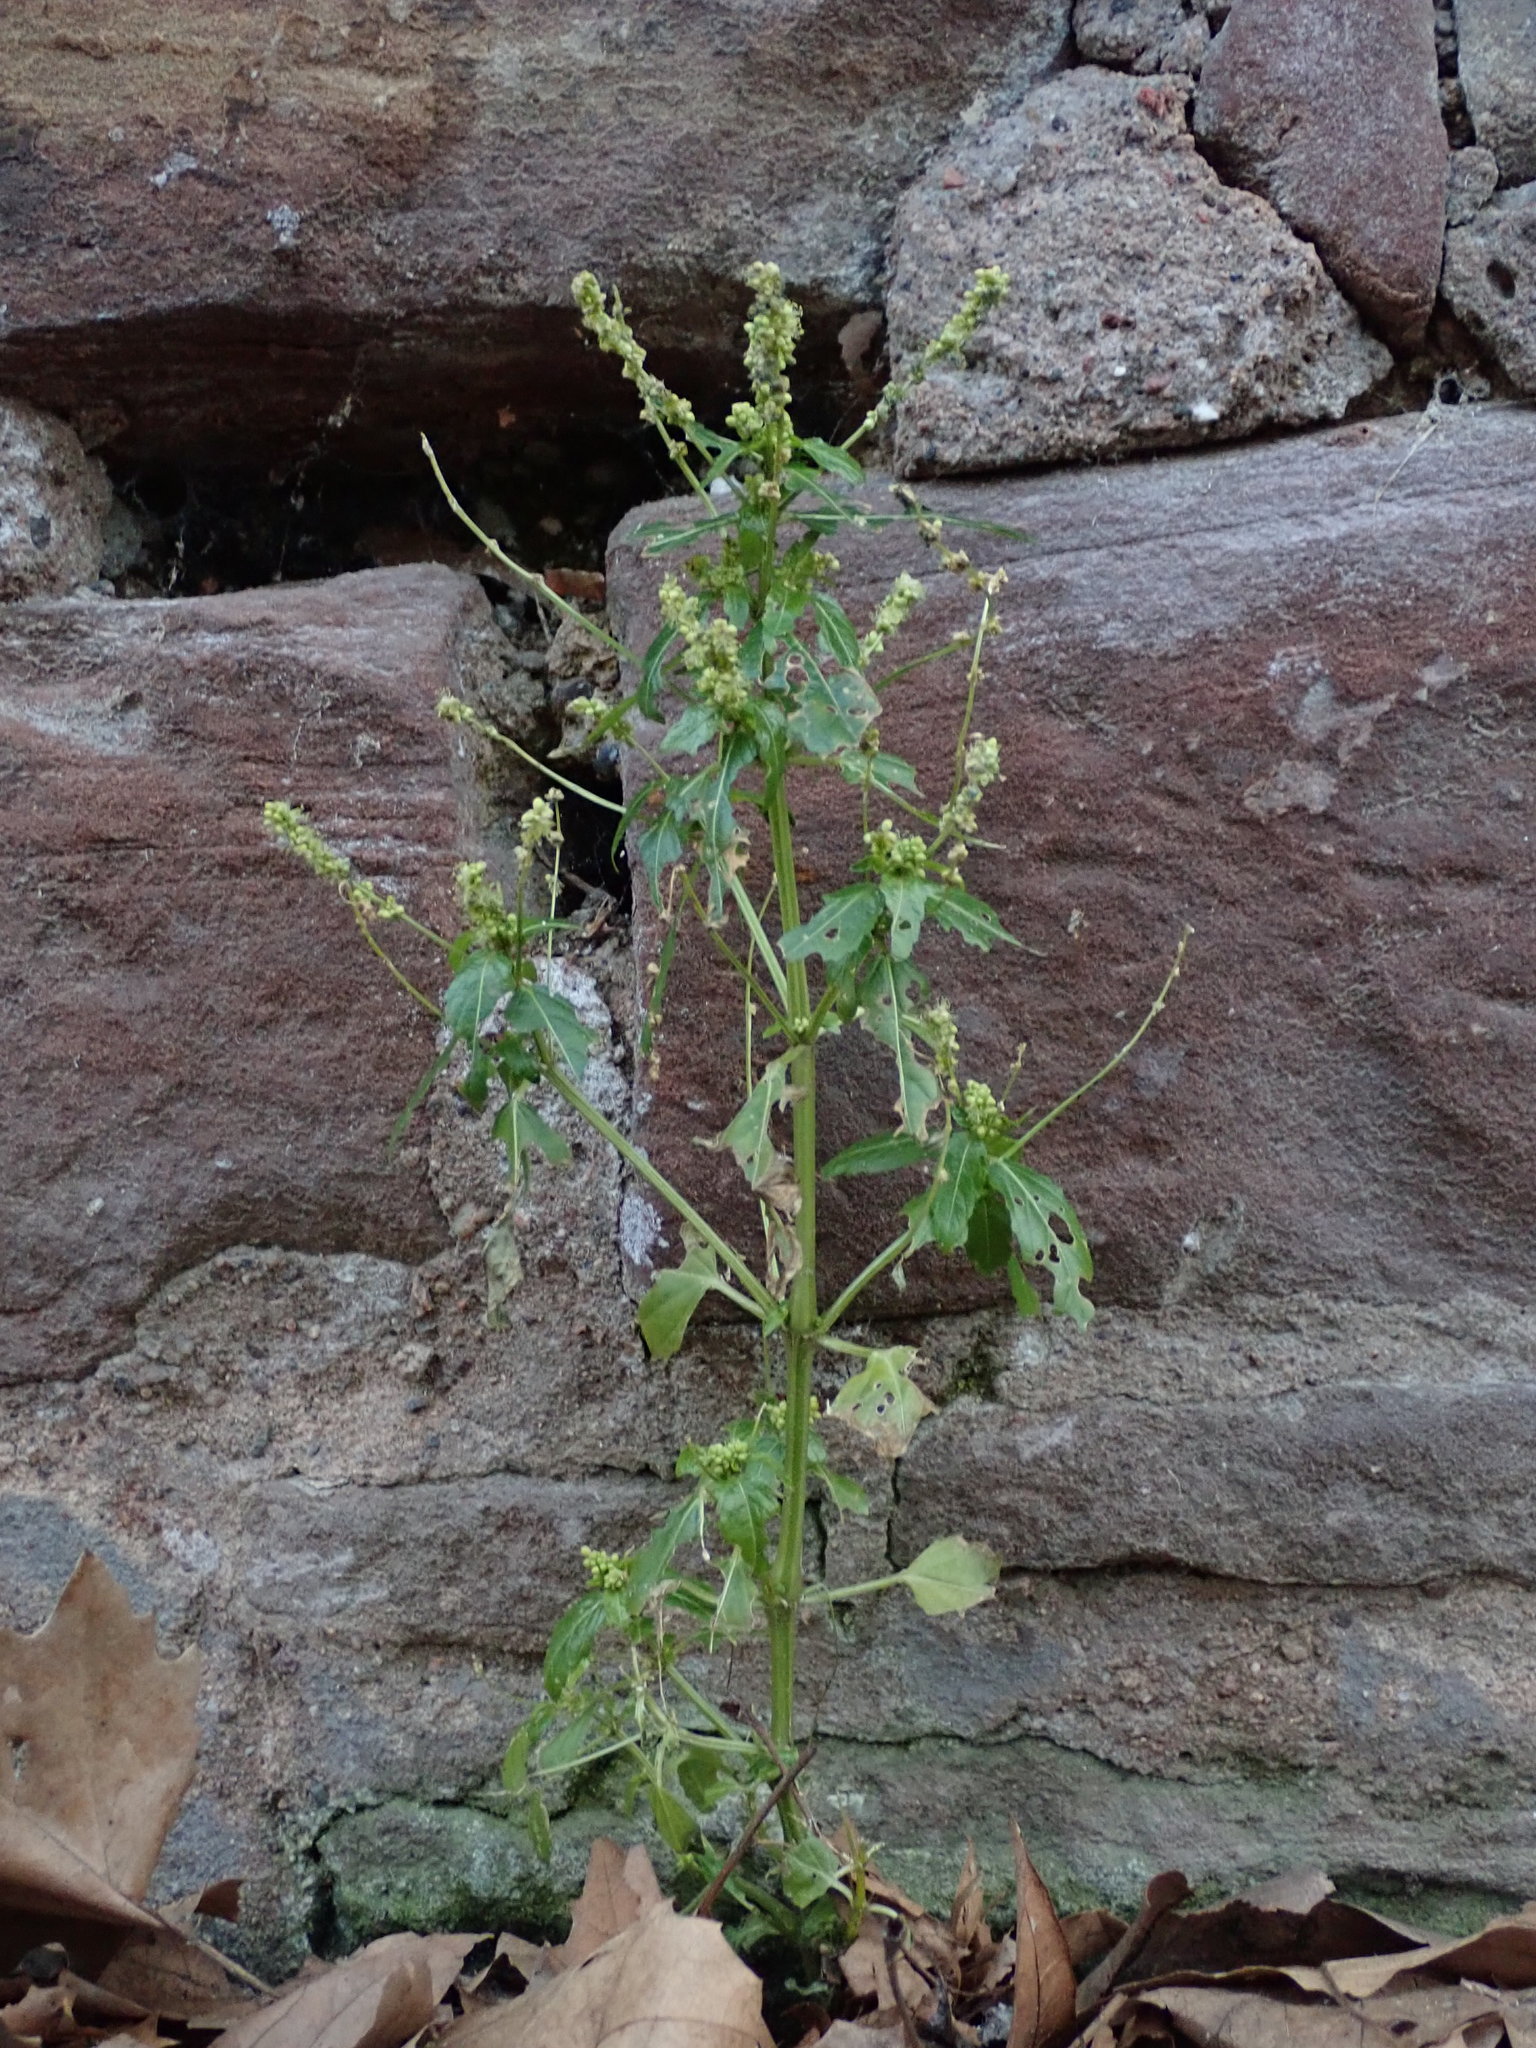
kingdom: Plantae
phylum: Tracheophyta
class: Magnoliopsida
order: Malpighiales
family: Euphorbiaceae
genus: Mercurialis
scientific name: Mercurialis annua
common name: Annual mercury
